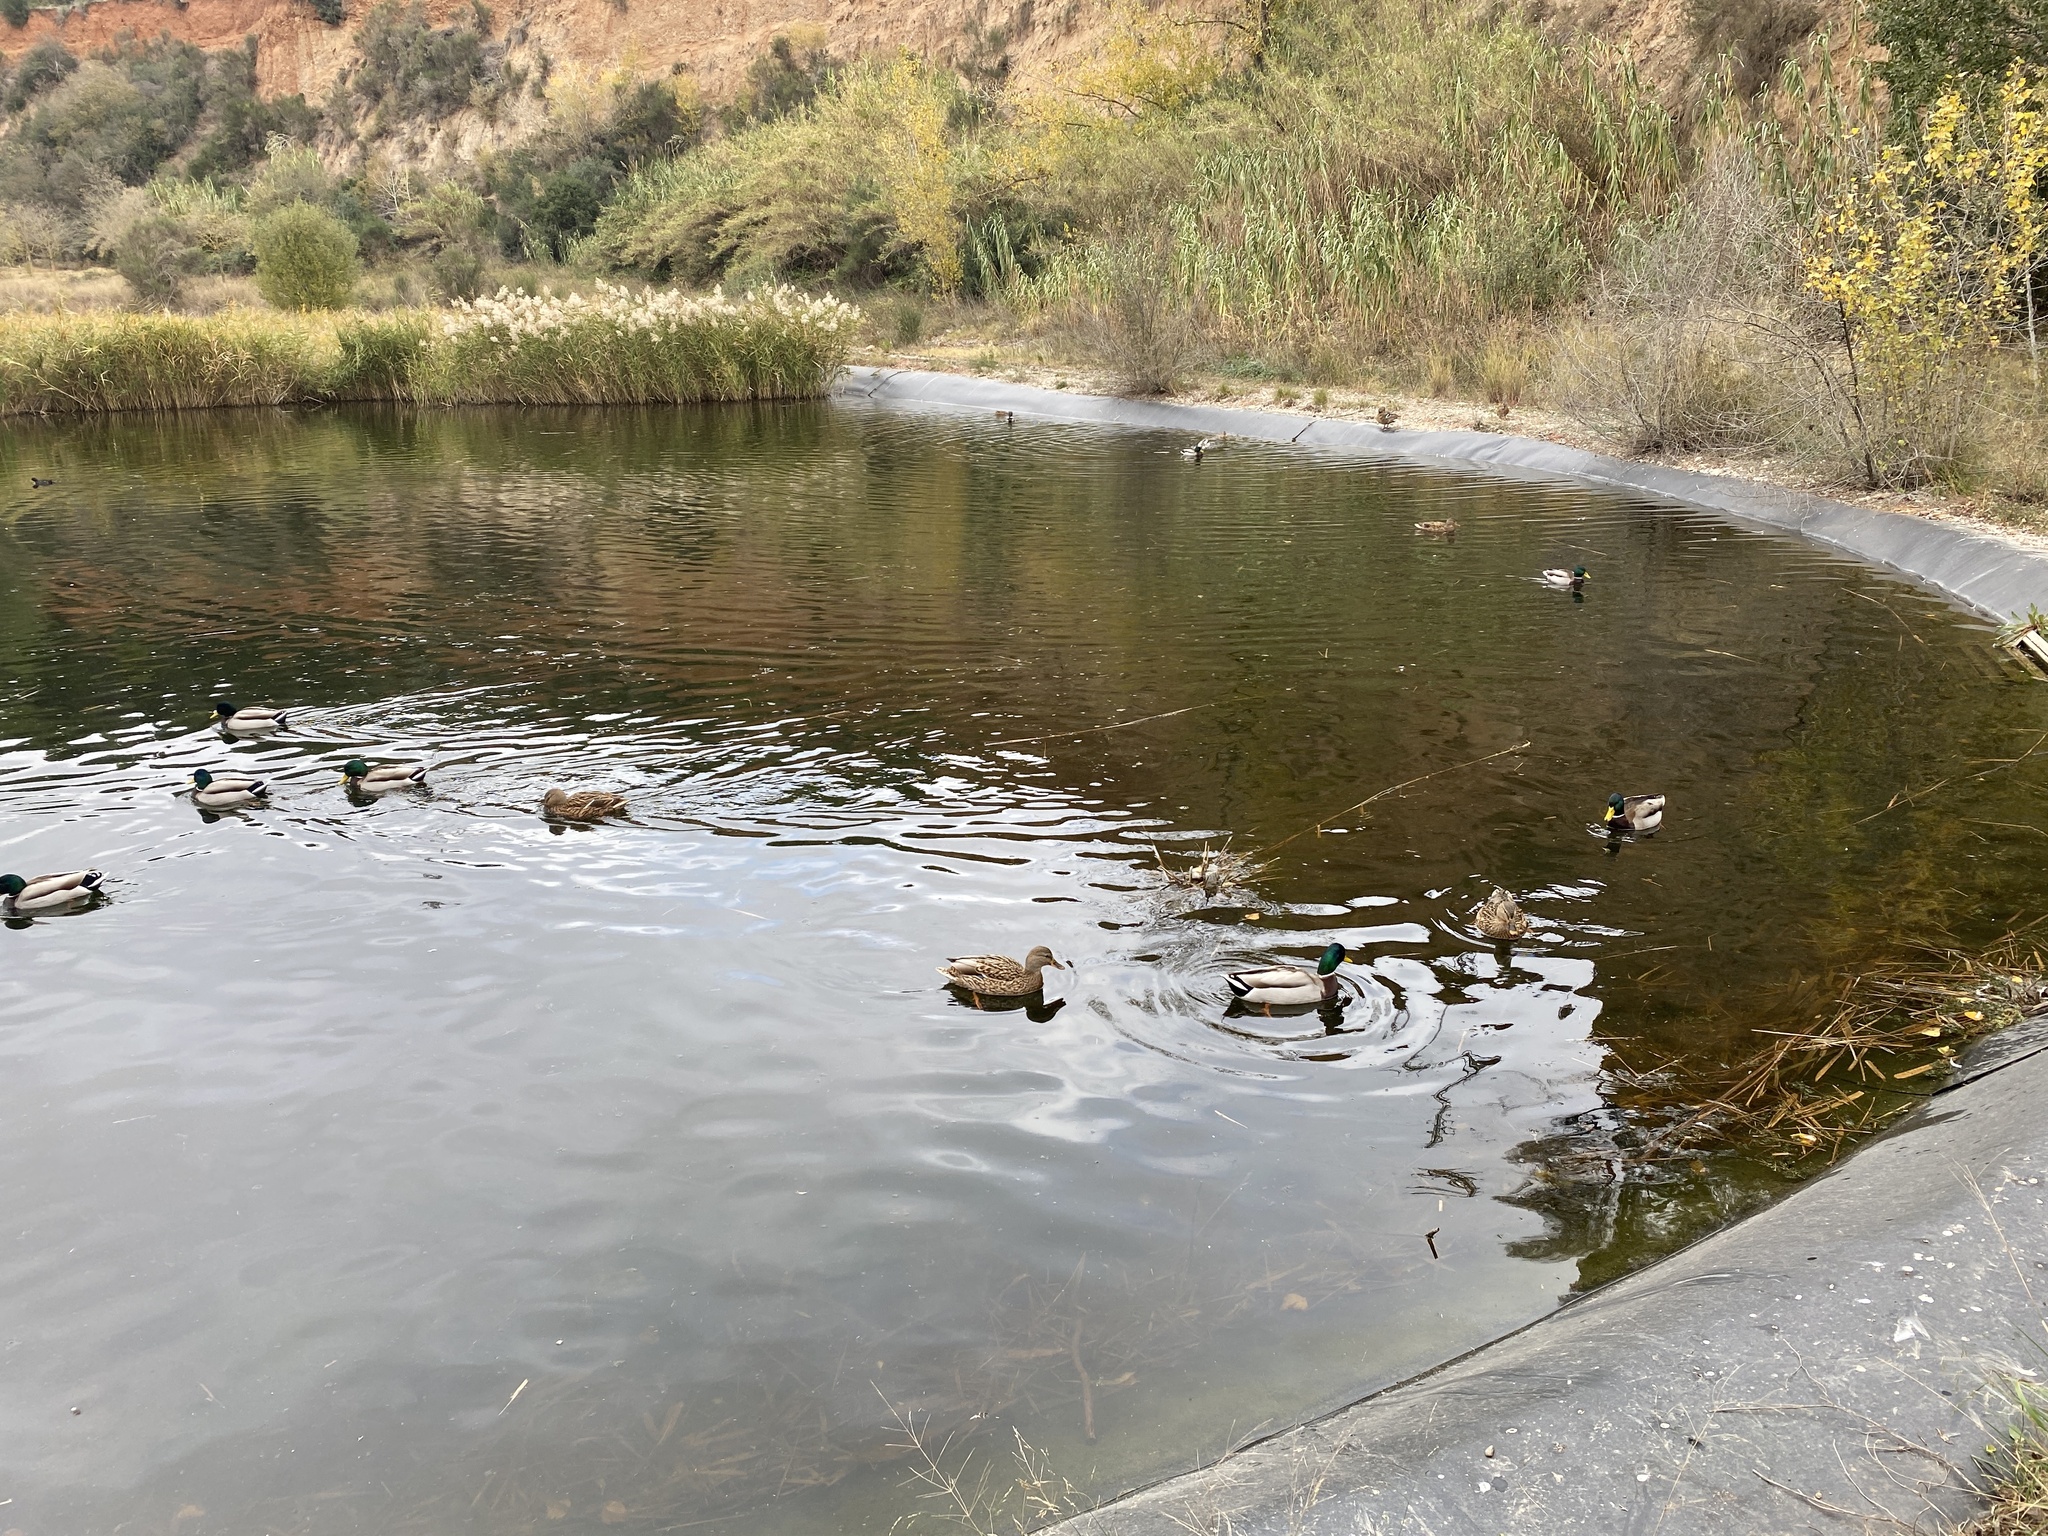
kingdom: Animalia
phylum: Chordata
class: Aves
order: Anseriformes
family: Anatidae
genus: Anas
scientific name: Anas platyrhynchos
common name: Mallard
